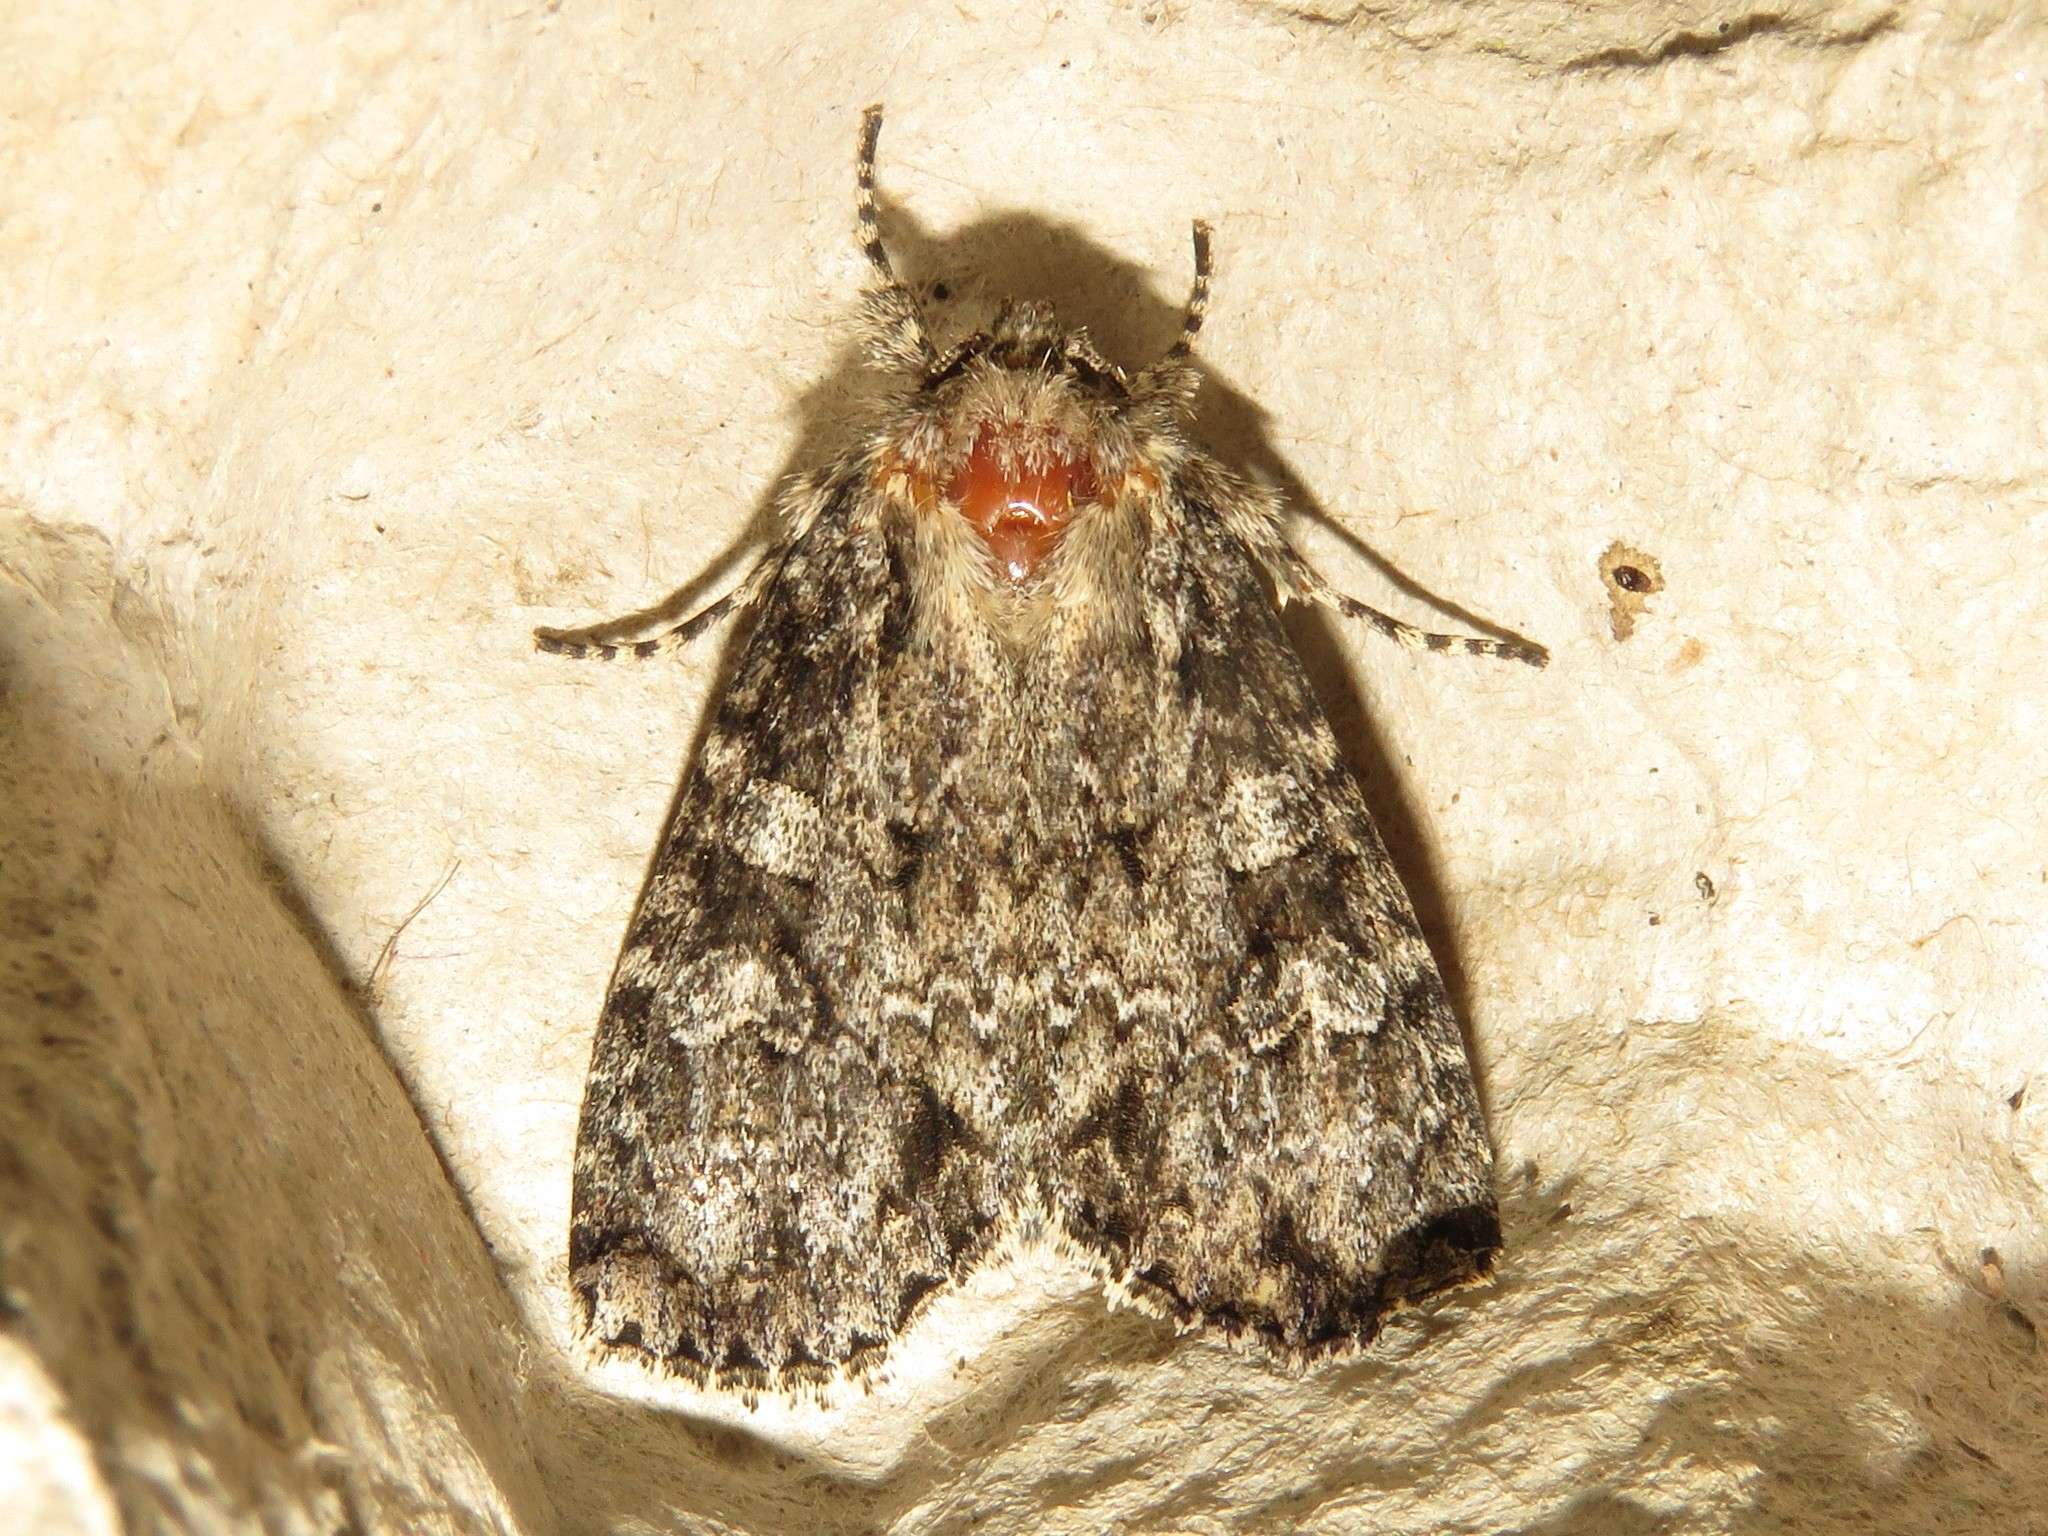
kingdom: Animalia
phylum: Arthropoda
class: Insecta
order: Lepidoptera
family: Noctuidae
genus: Eurois
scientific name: Eurois occulta
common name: Great brocade
